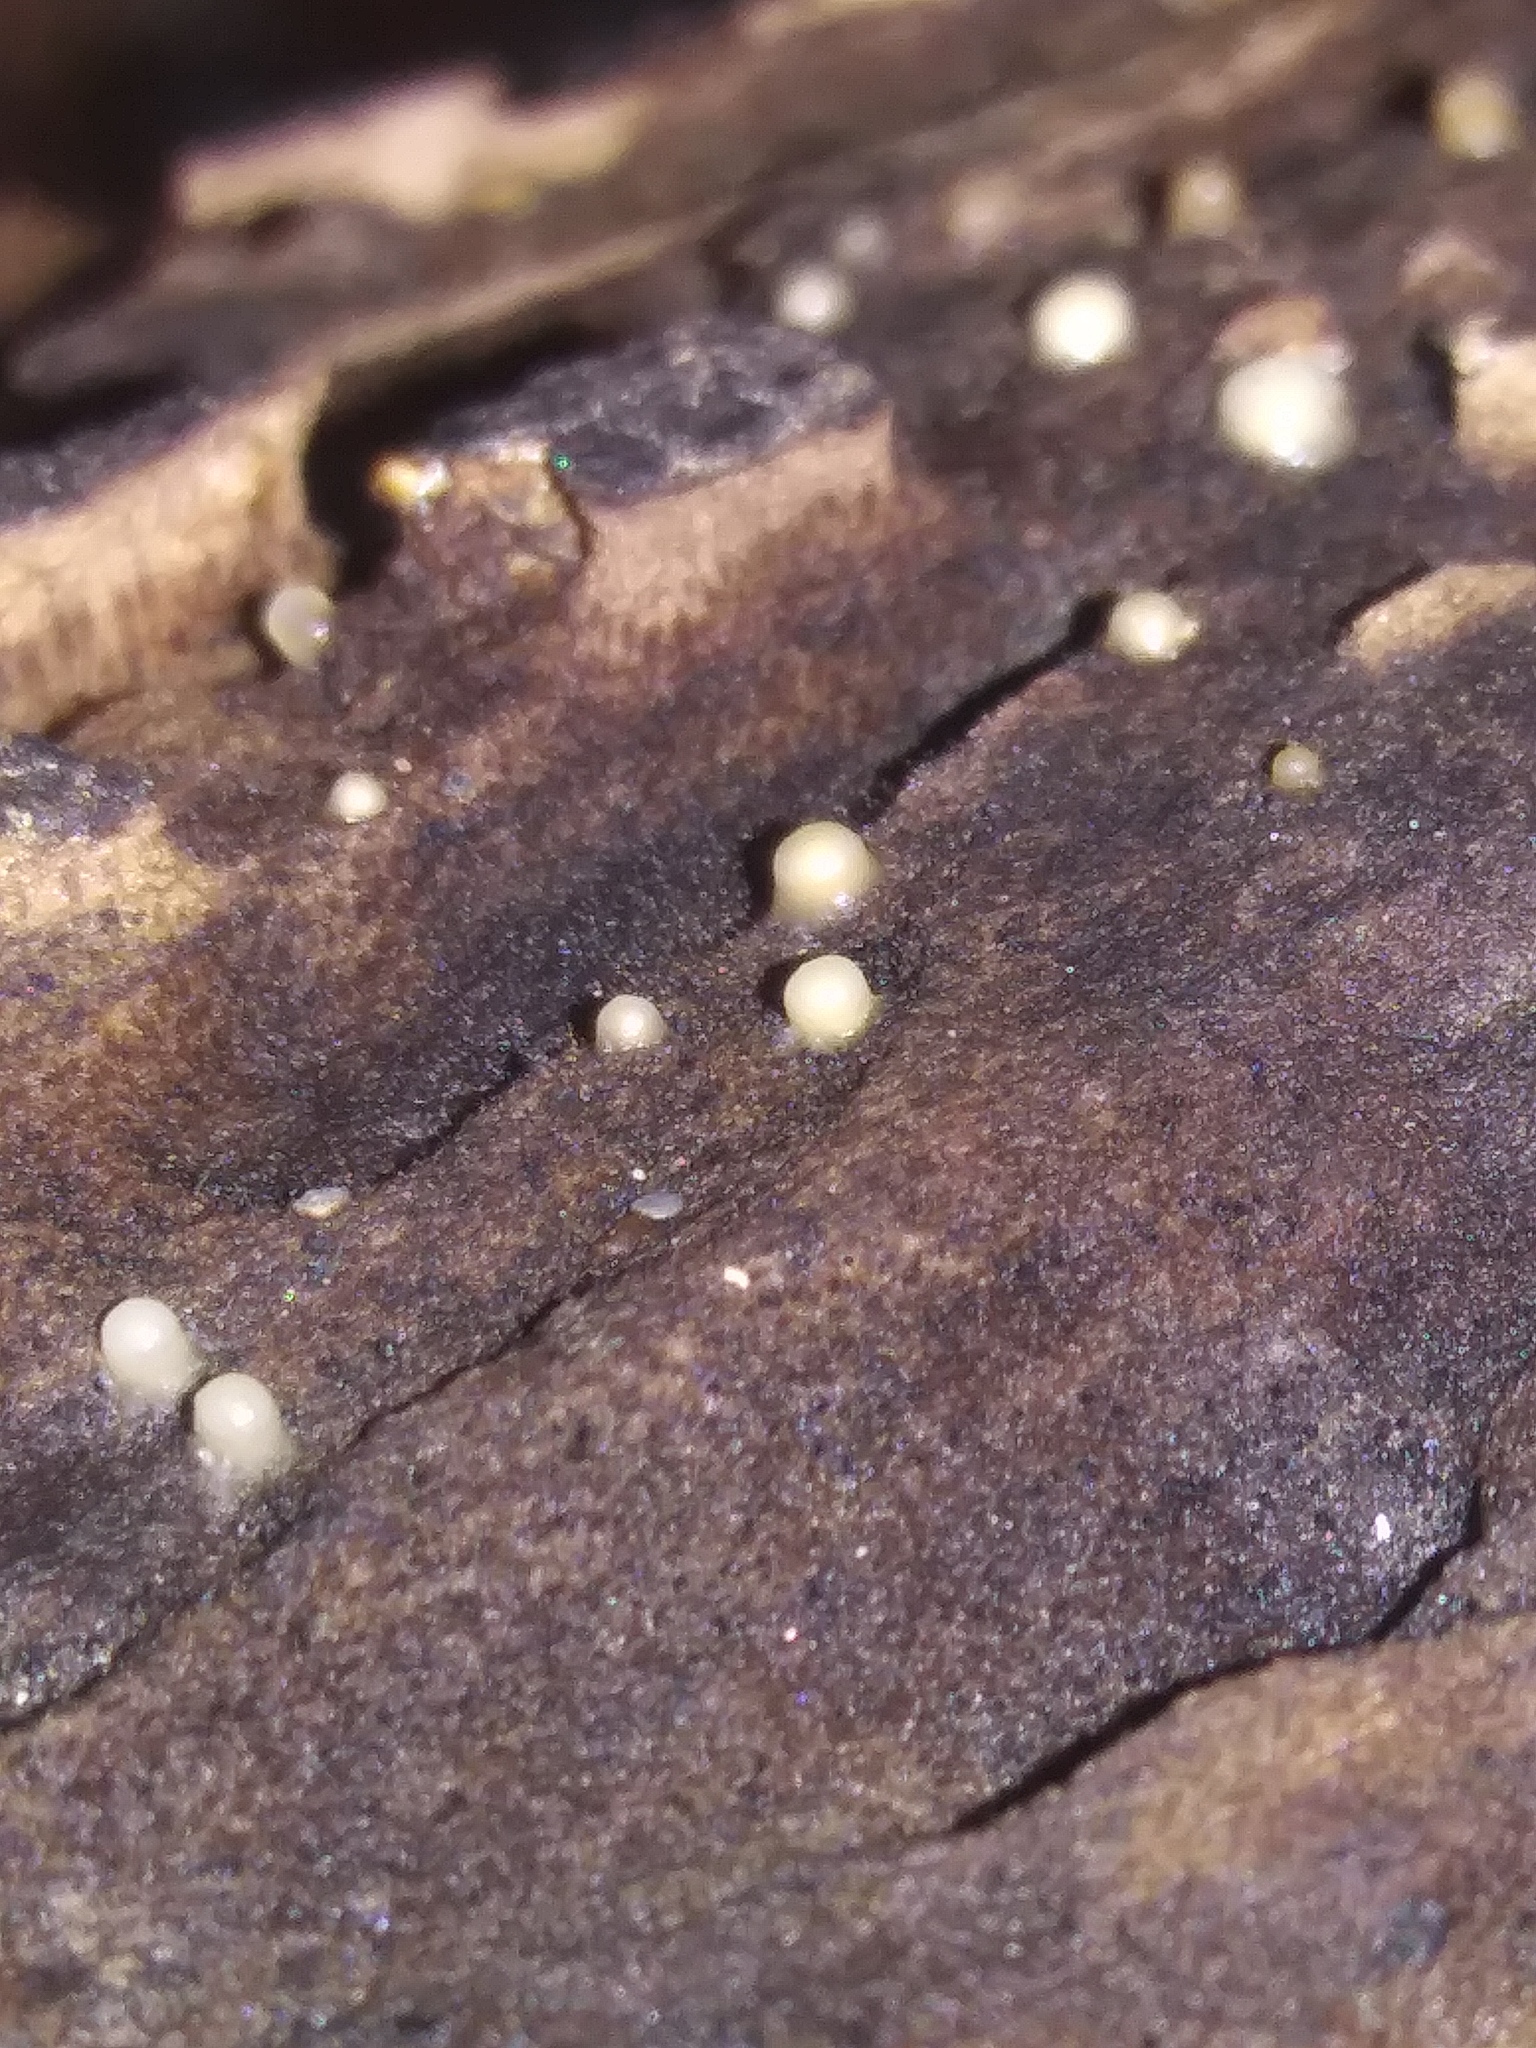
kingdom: Fungi
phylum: Basidiomycota
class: Atractiellomycetes
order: Atractiellales
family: Phleogenaceae
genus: Helicogloea
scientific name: Helicogloea compressa
